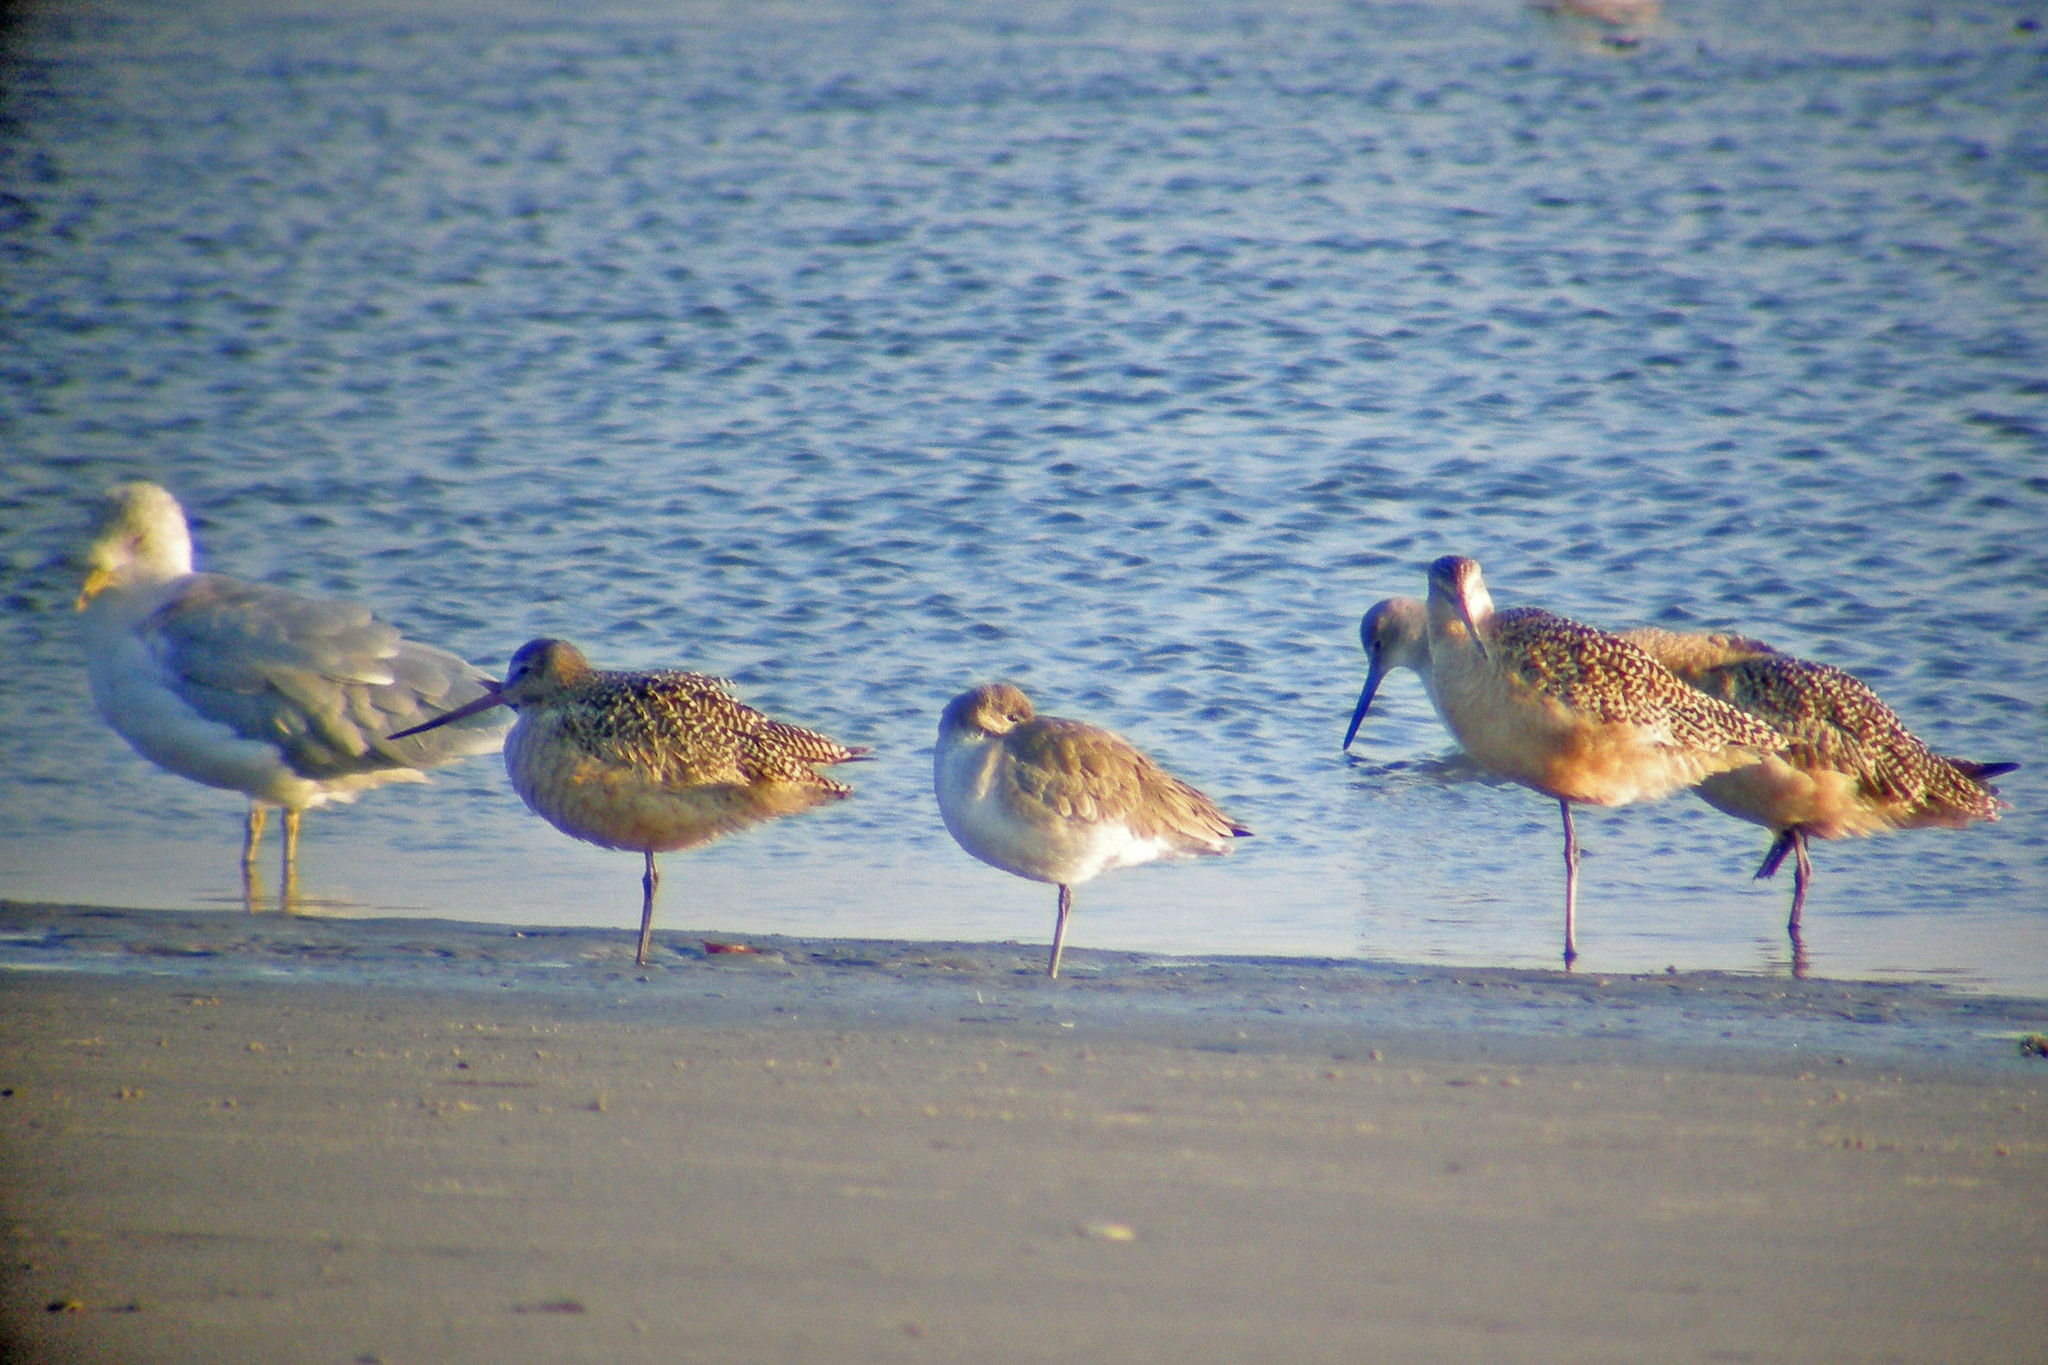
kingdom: Animalia
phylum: Chordata
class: Aves
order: Charadriiformes
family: Scolopacidae
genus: Limosa
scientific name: Limosa fedoa
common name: Marbled godwit
